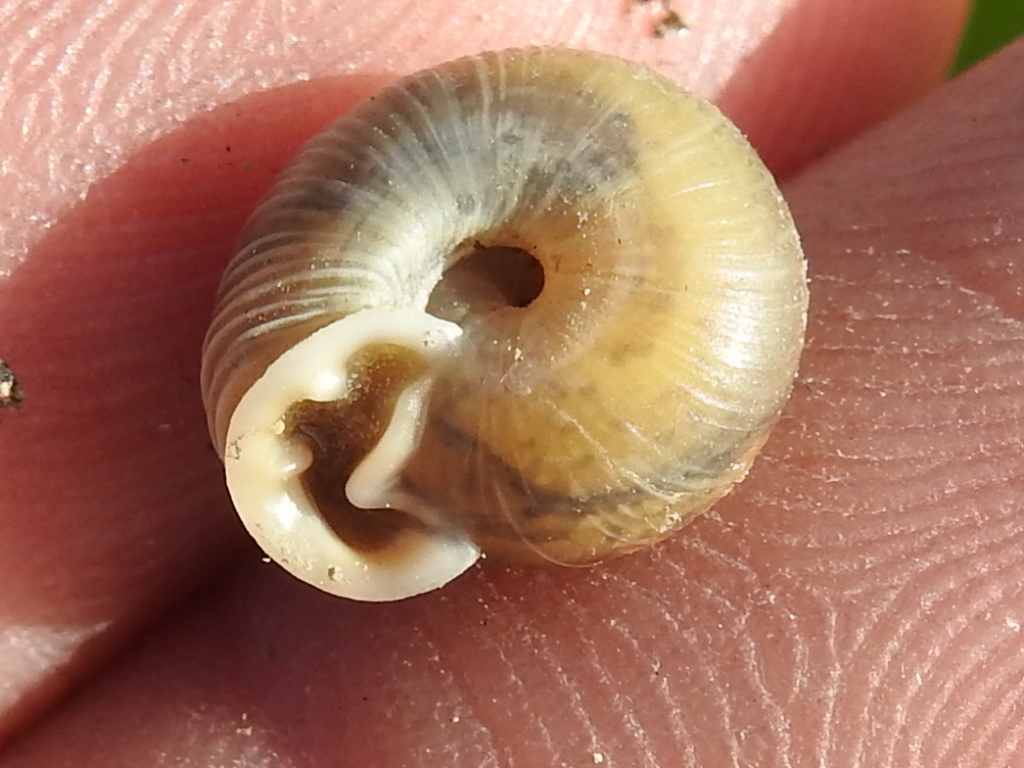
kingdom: Animalia
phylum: Mollusca
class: Gastropoda
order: Stylommatophora
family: Polygyridae
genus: Linisa
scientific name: Linisa texasiana
